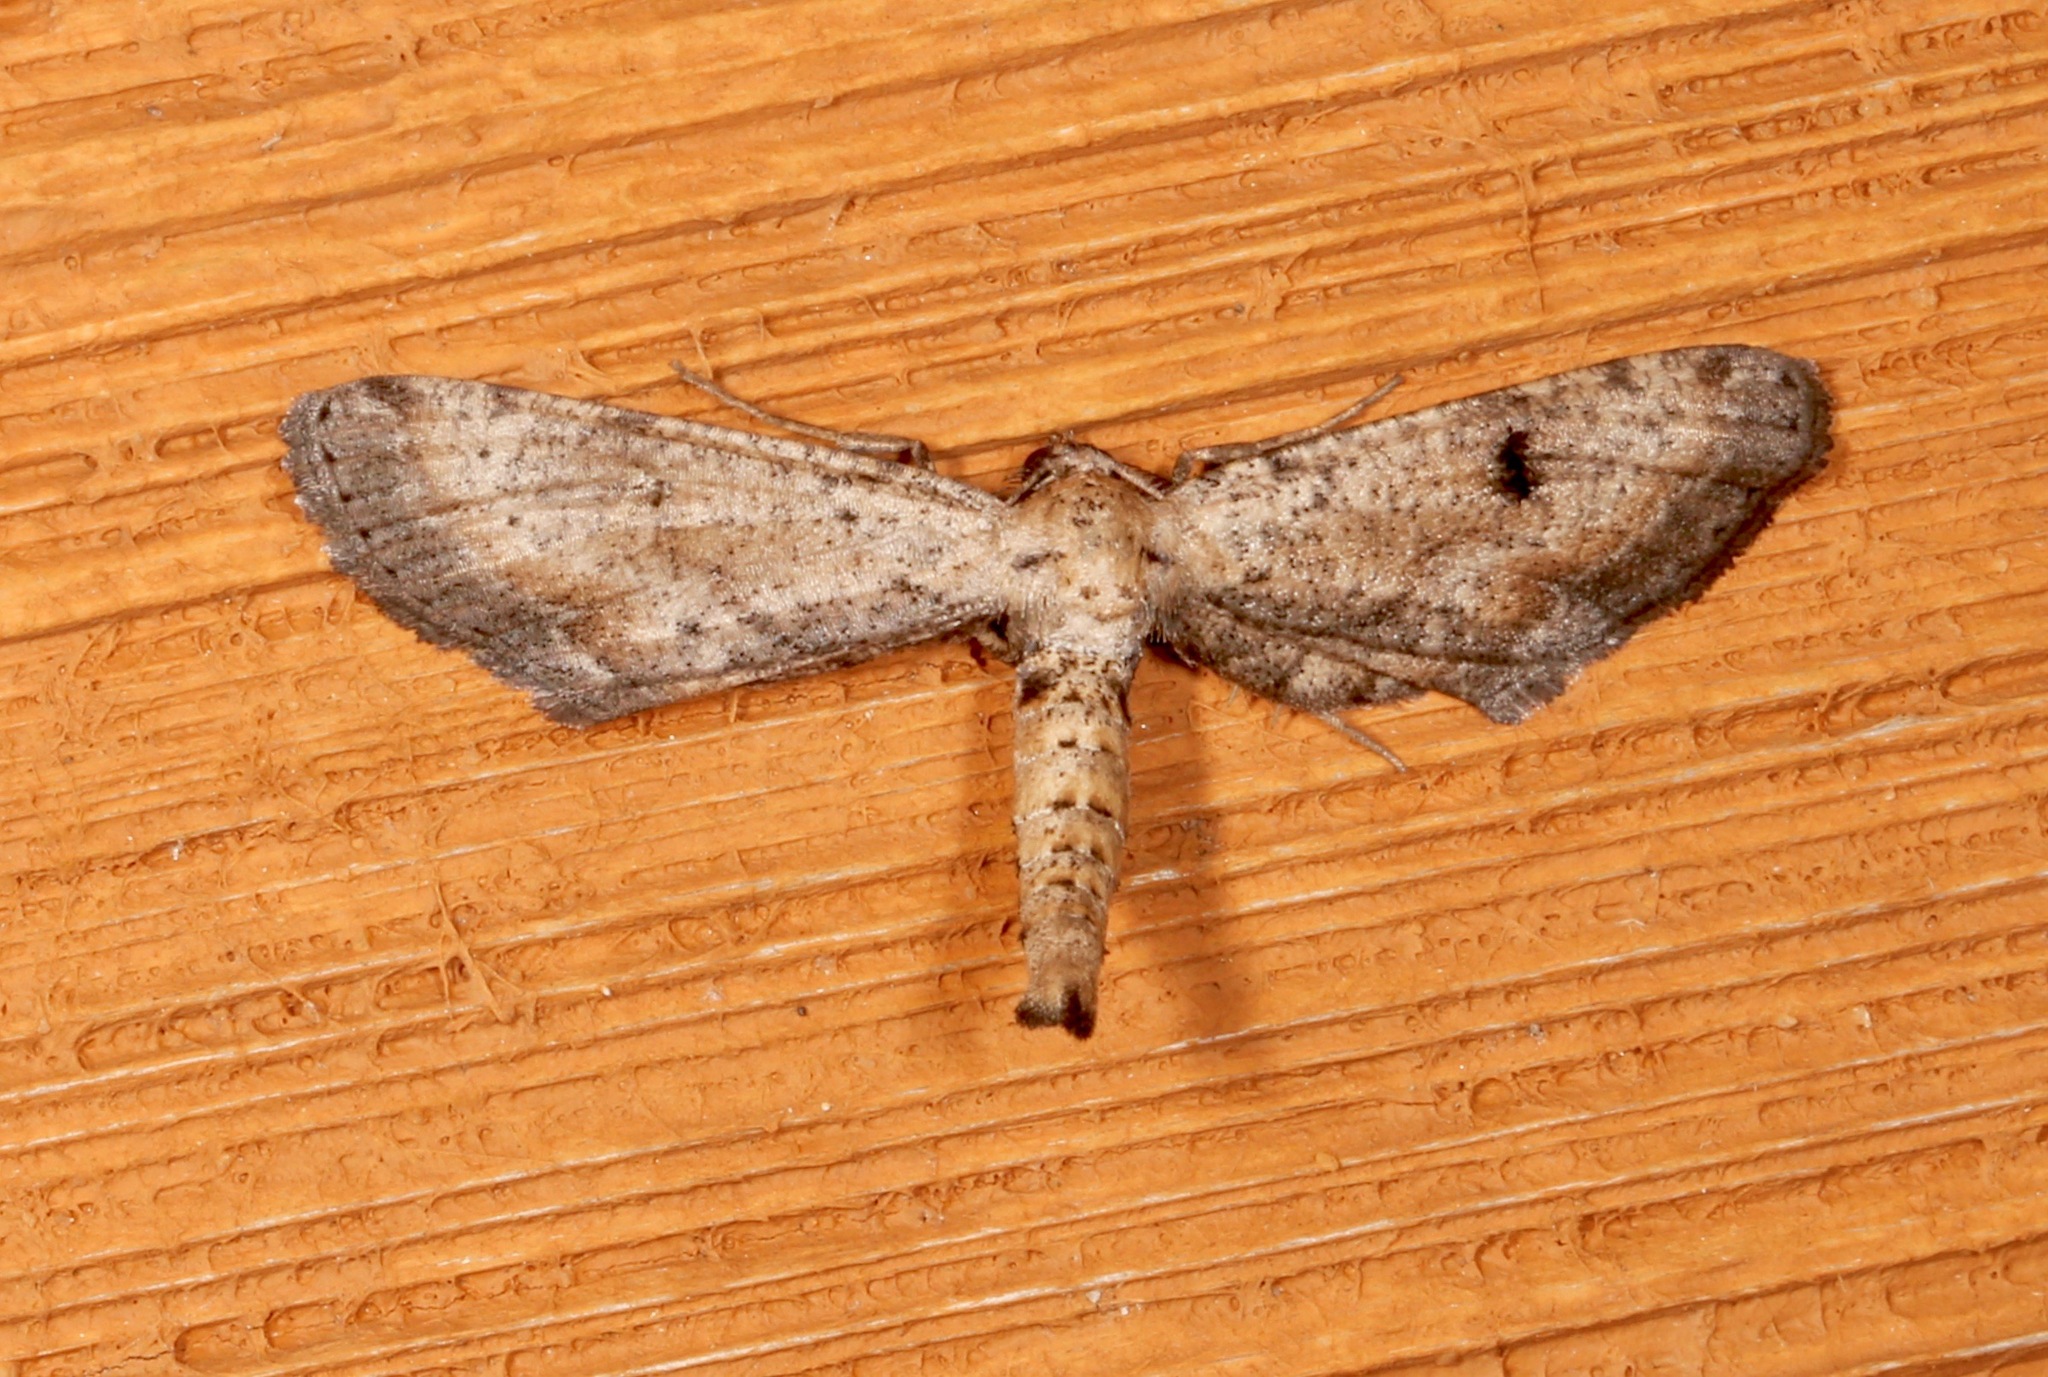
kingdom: Animalia
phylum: Arthropoda
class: Insecta
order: Lepidoptera
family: Geometridae
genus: Tornos
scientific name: Tornos scolopacinaria
